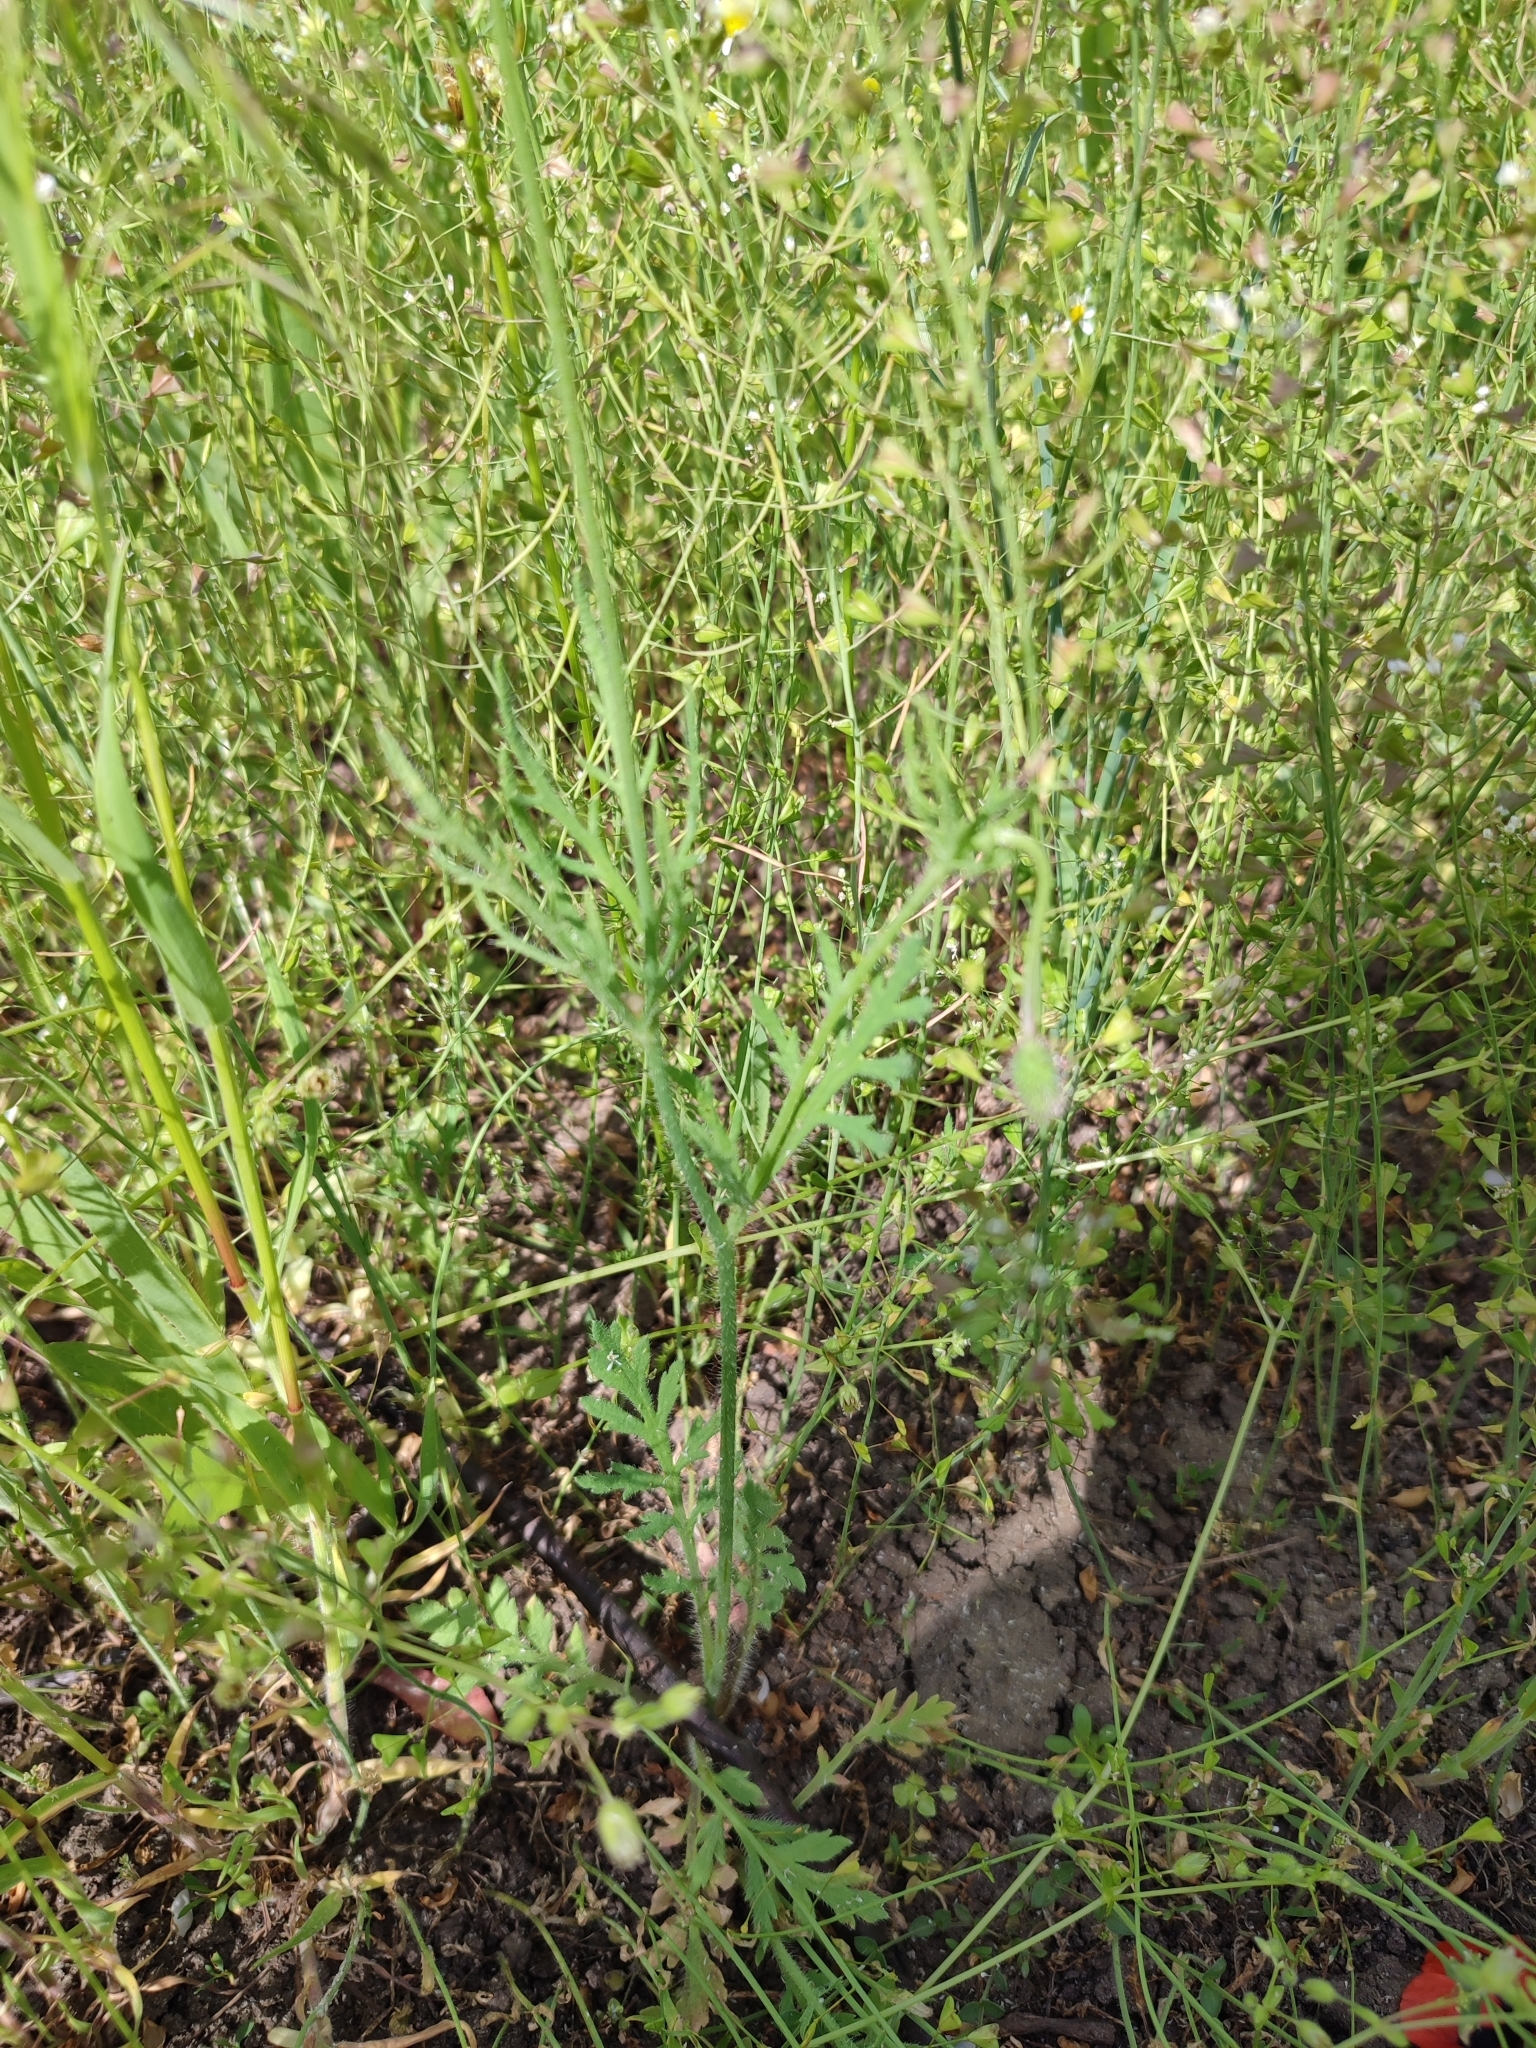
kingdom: Plantae
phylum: Tracheophyta
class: Magnoliopsida
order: Ranunculales
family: Papaveraceae
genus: Papaver
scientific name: Papaver dubium
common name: Long-headed poppy
